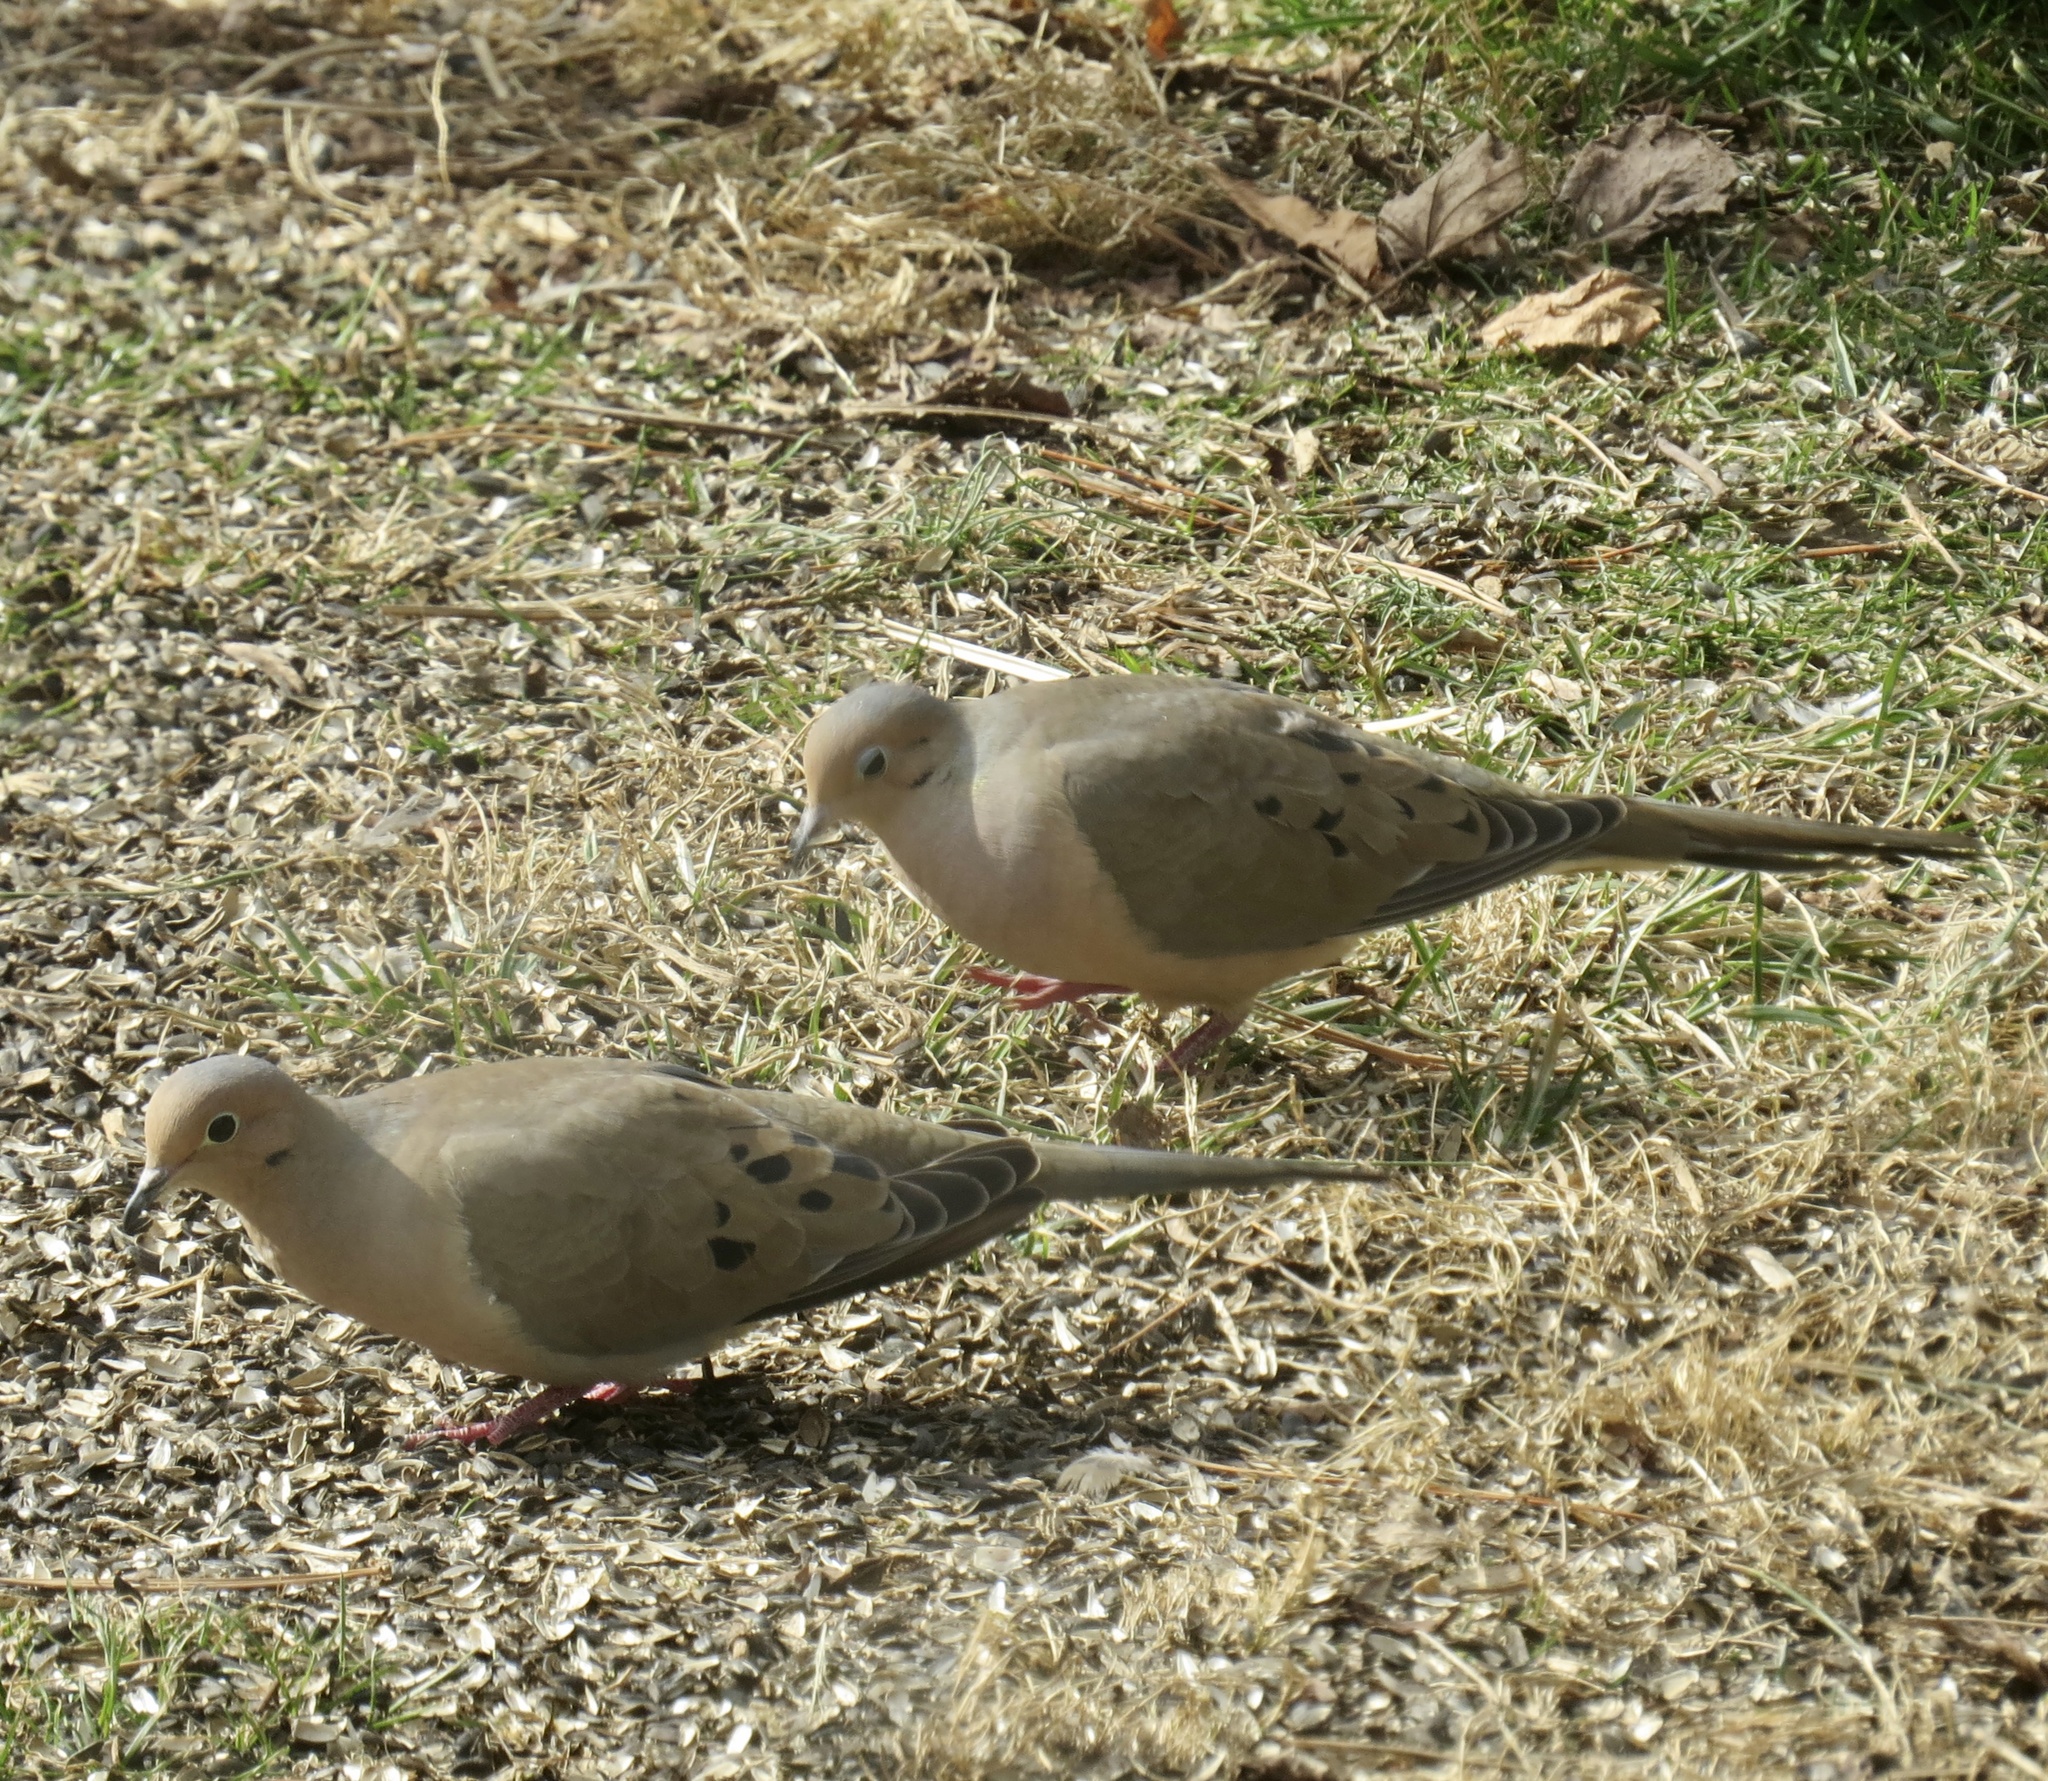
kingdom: Animalia
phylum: Chordata
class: Aves
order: Columbiformes
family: Columbidae
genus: Zenaida
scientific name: Zenaida macroura
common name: Mourning dove
